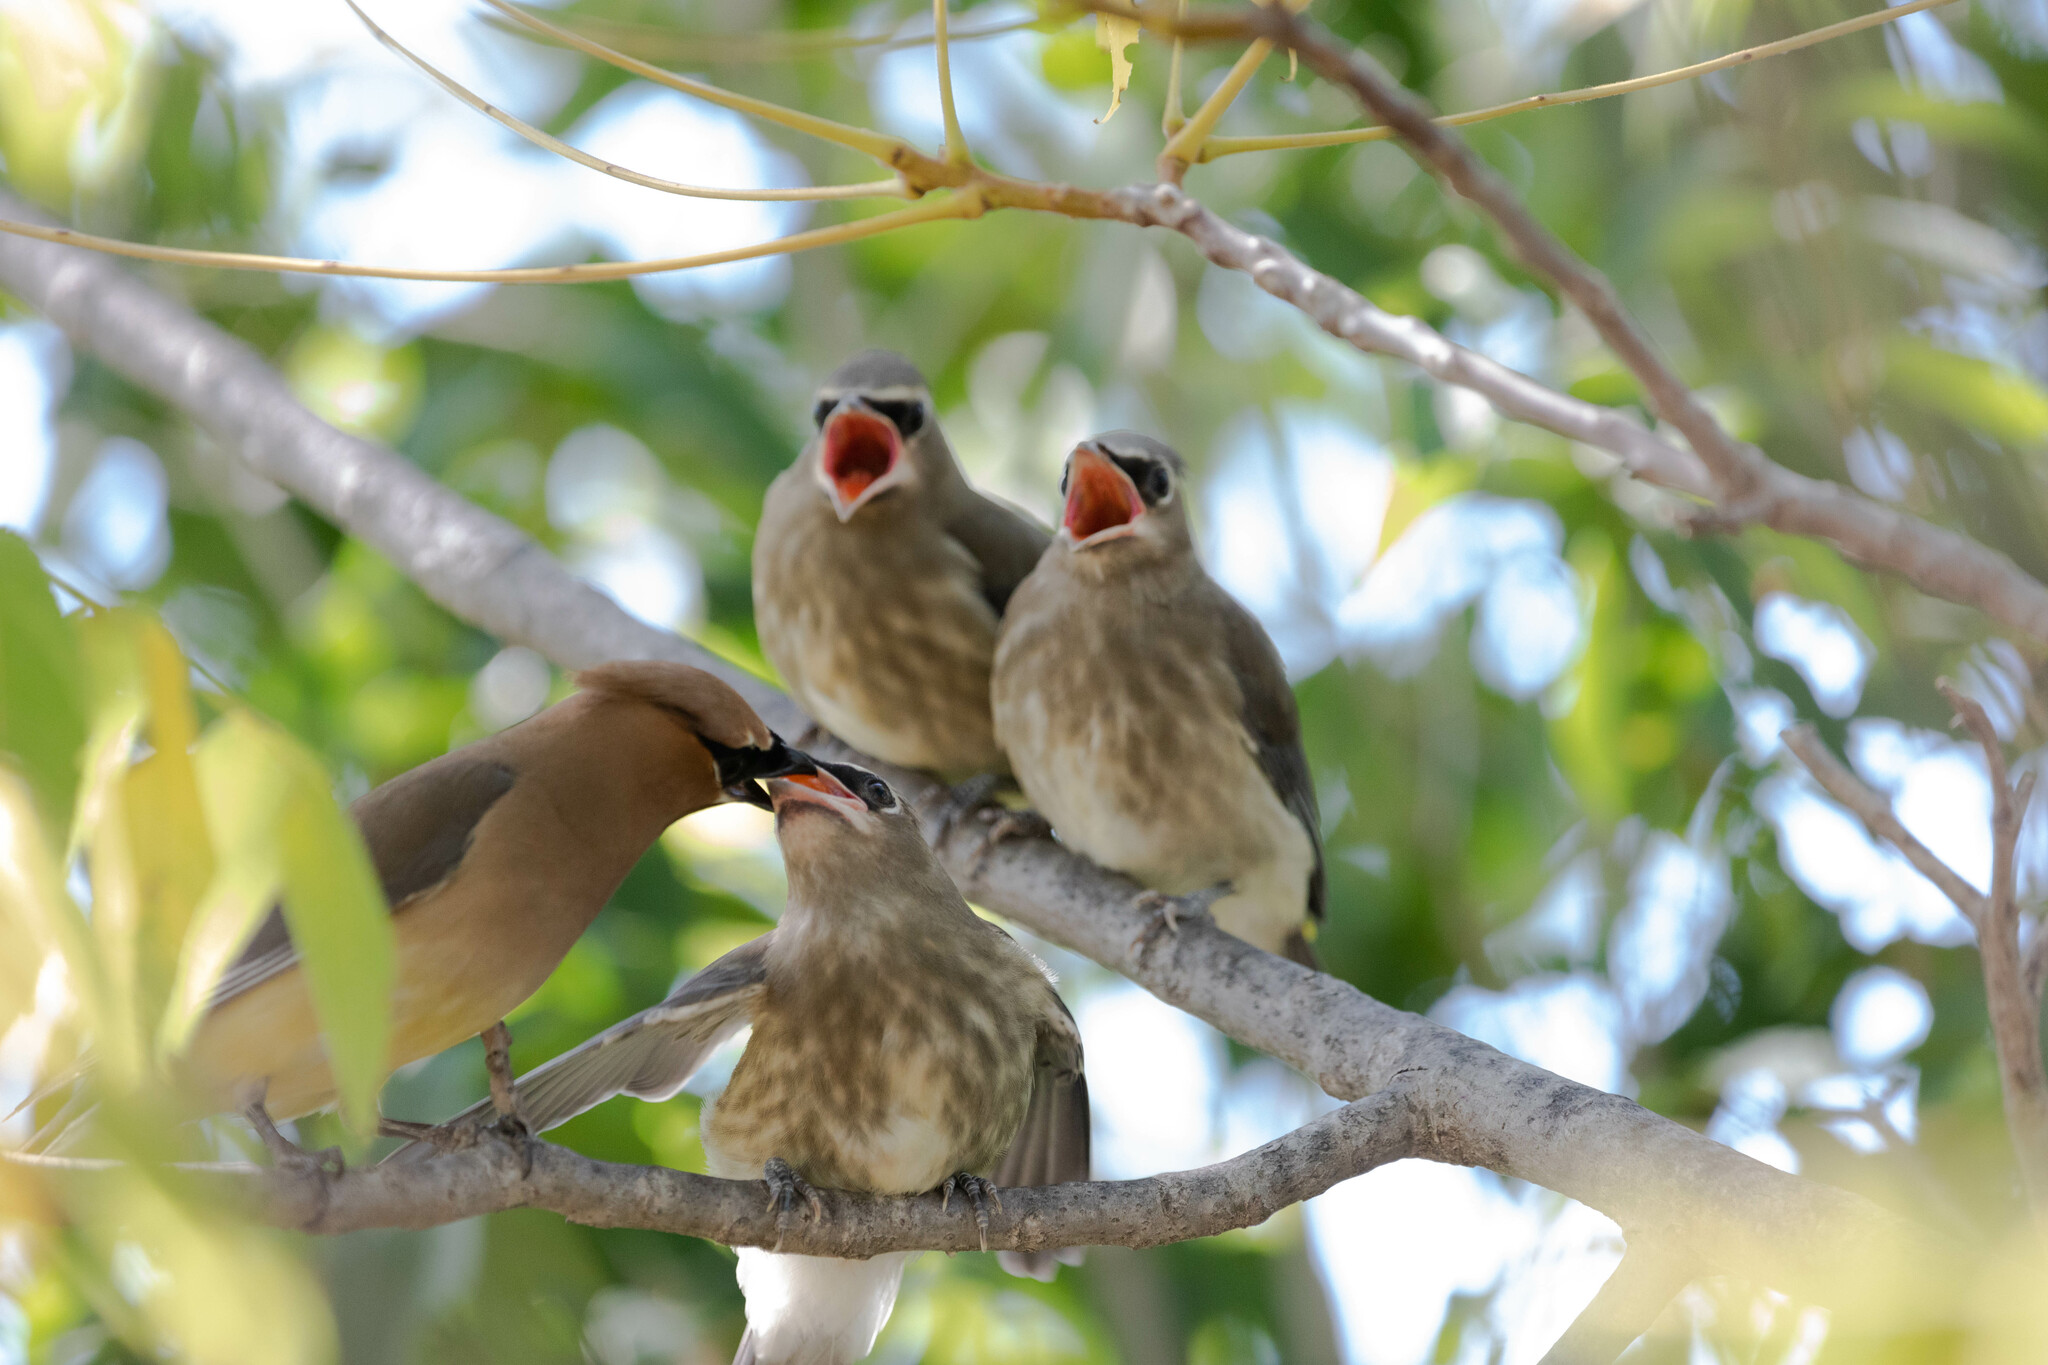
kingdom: Animalia
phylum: Chordata
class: Aves
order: Passeriformes
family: Bombycillidae
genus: Bombycilla
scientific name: Bombycilla cedrorum
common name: Cedar waxwing
